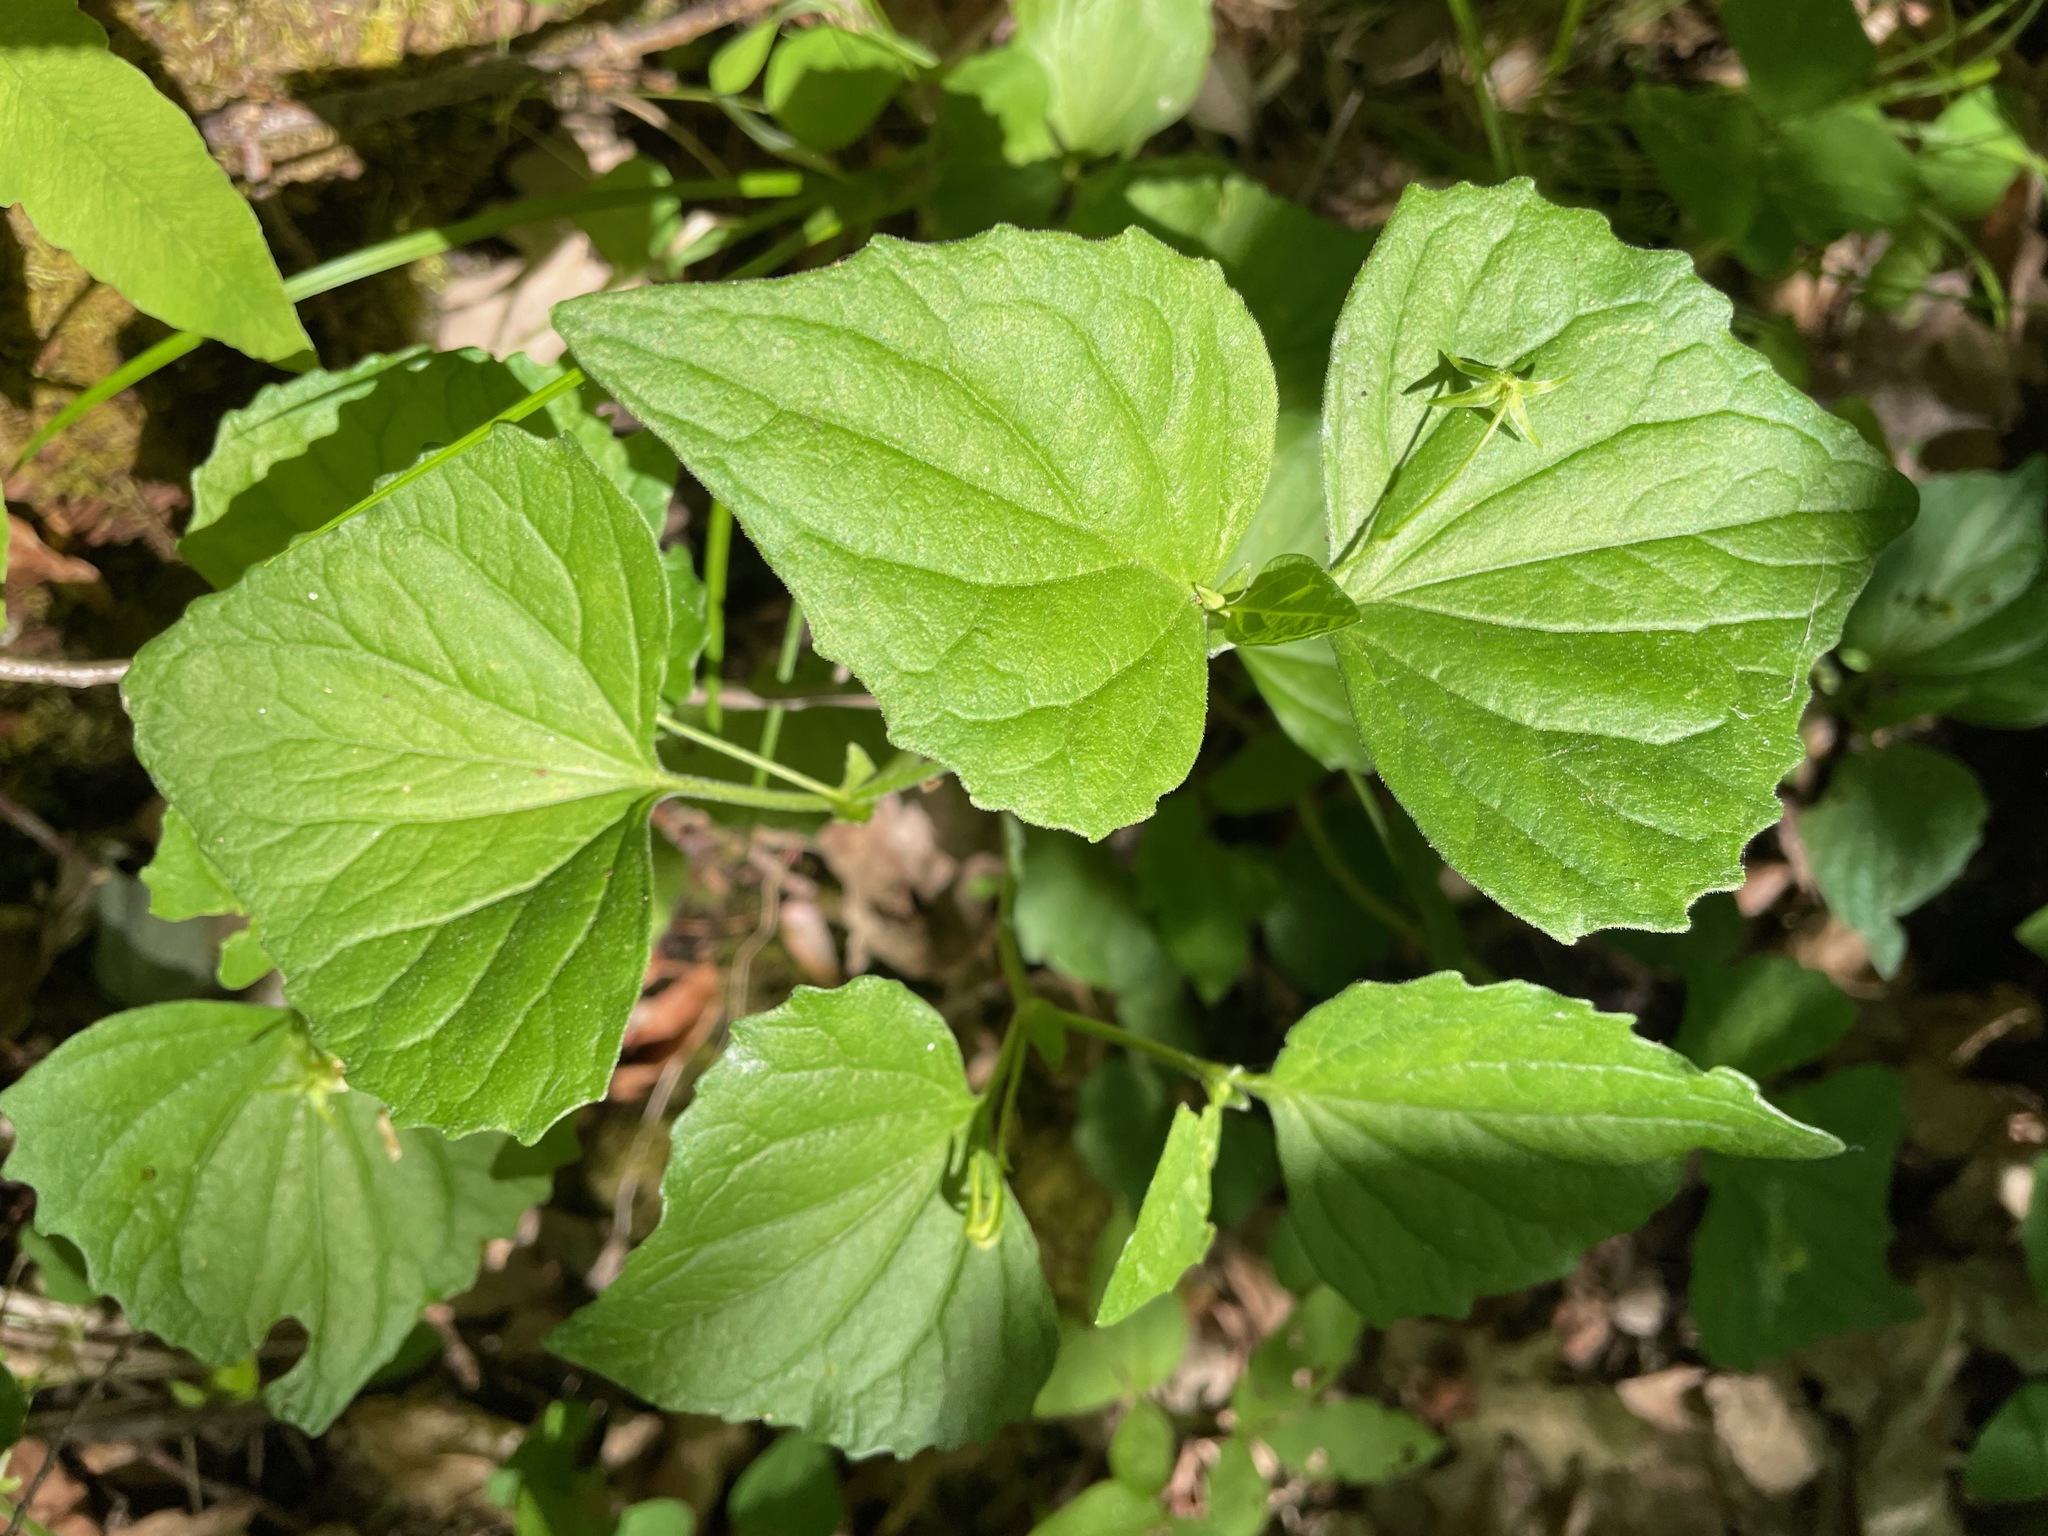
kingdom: Plantae
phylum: Tracheophyta
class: Magnoliopsida
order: Malpighiales
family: Violaceae
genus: Viola
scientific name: Viola eriocarpa
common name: Smooth yellow violet
